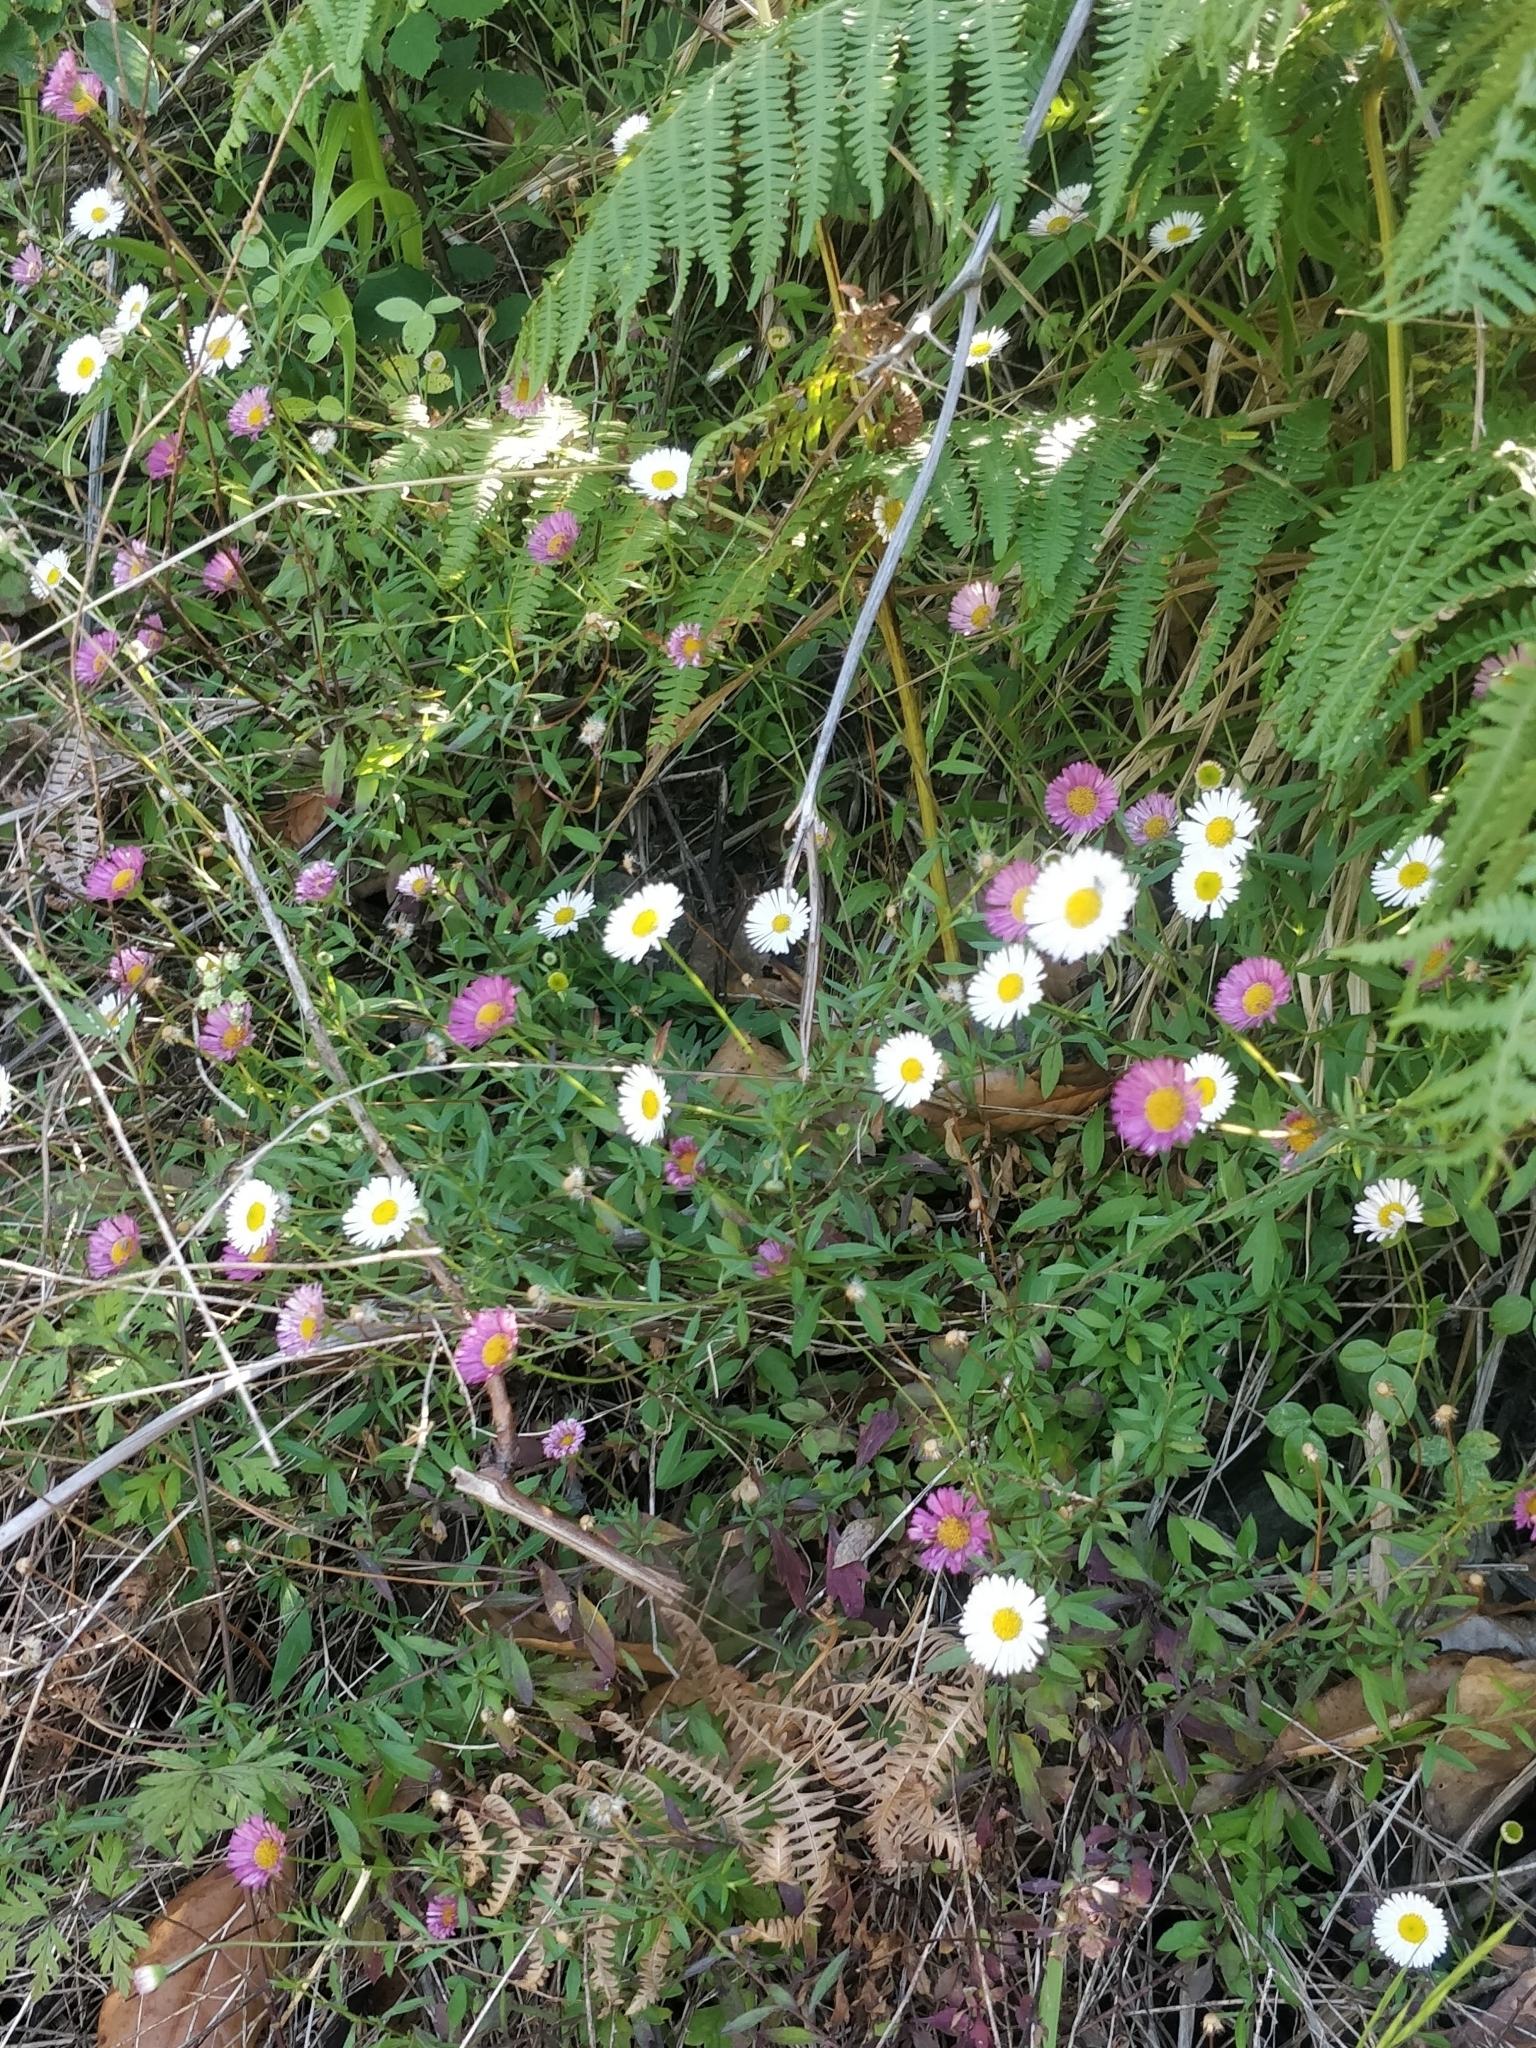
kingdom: Plantae
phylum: Tracheophyta
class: Magnoliopsida
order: Asterales
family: Asteraceae
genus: Erigeron
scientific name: Erigeron karvinskianus
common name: Mexican fleabane
